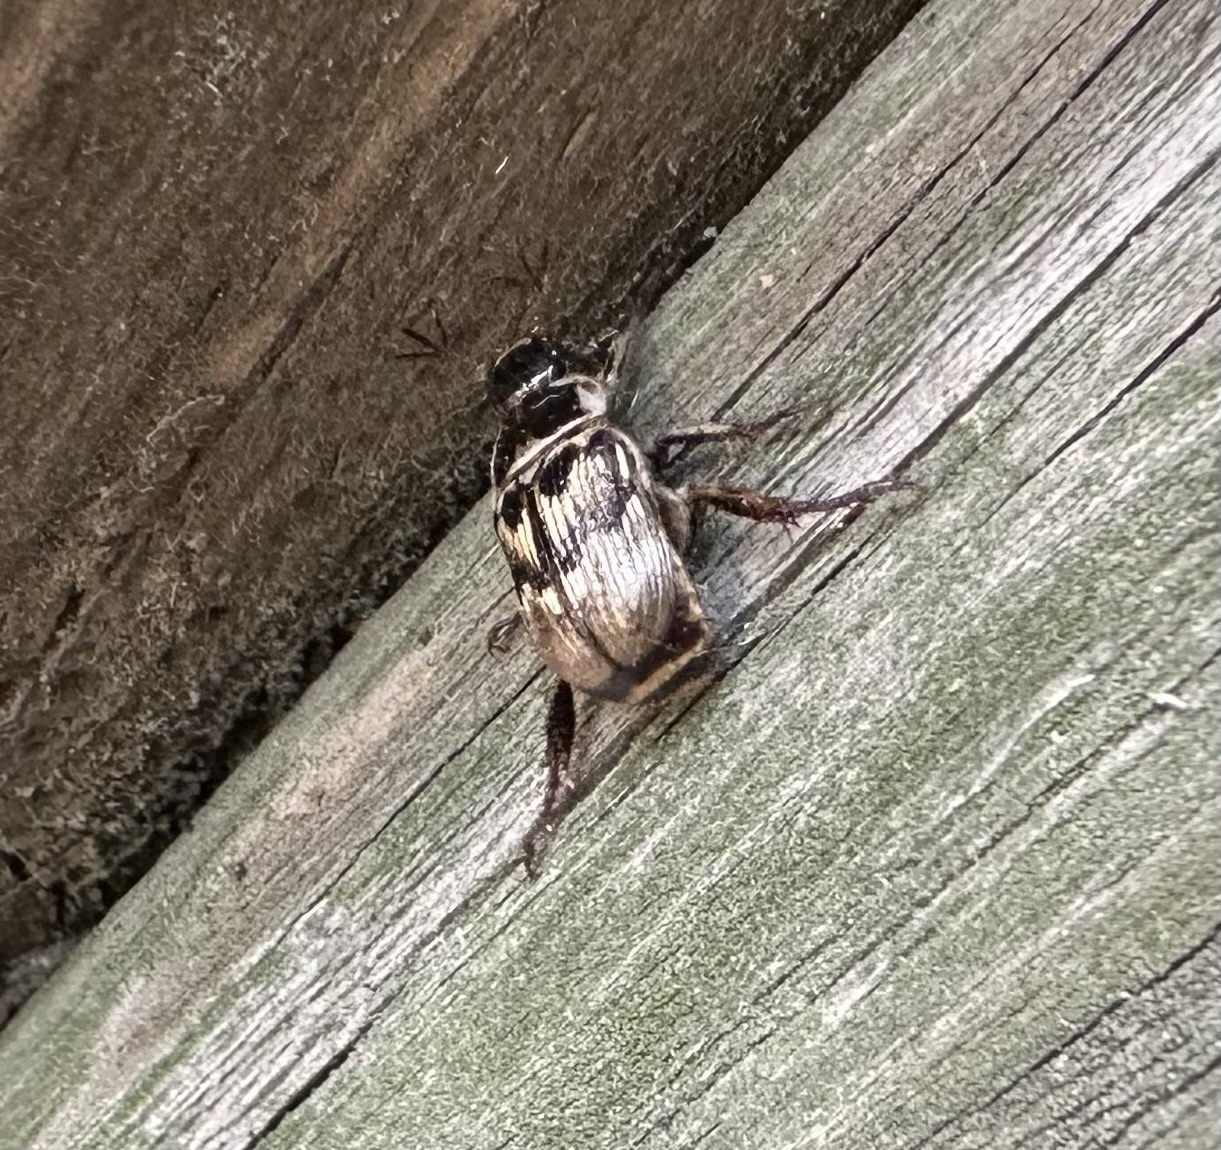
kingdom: Animalia
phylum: Arthropoda
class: Insecta
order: Coleoptera
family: Scarabaeidae
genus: Exomala
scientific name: Exomala orientalis
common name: Oriental beetle
